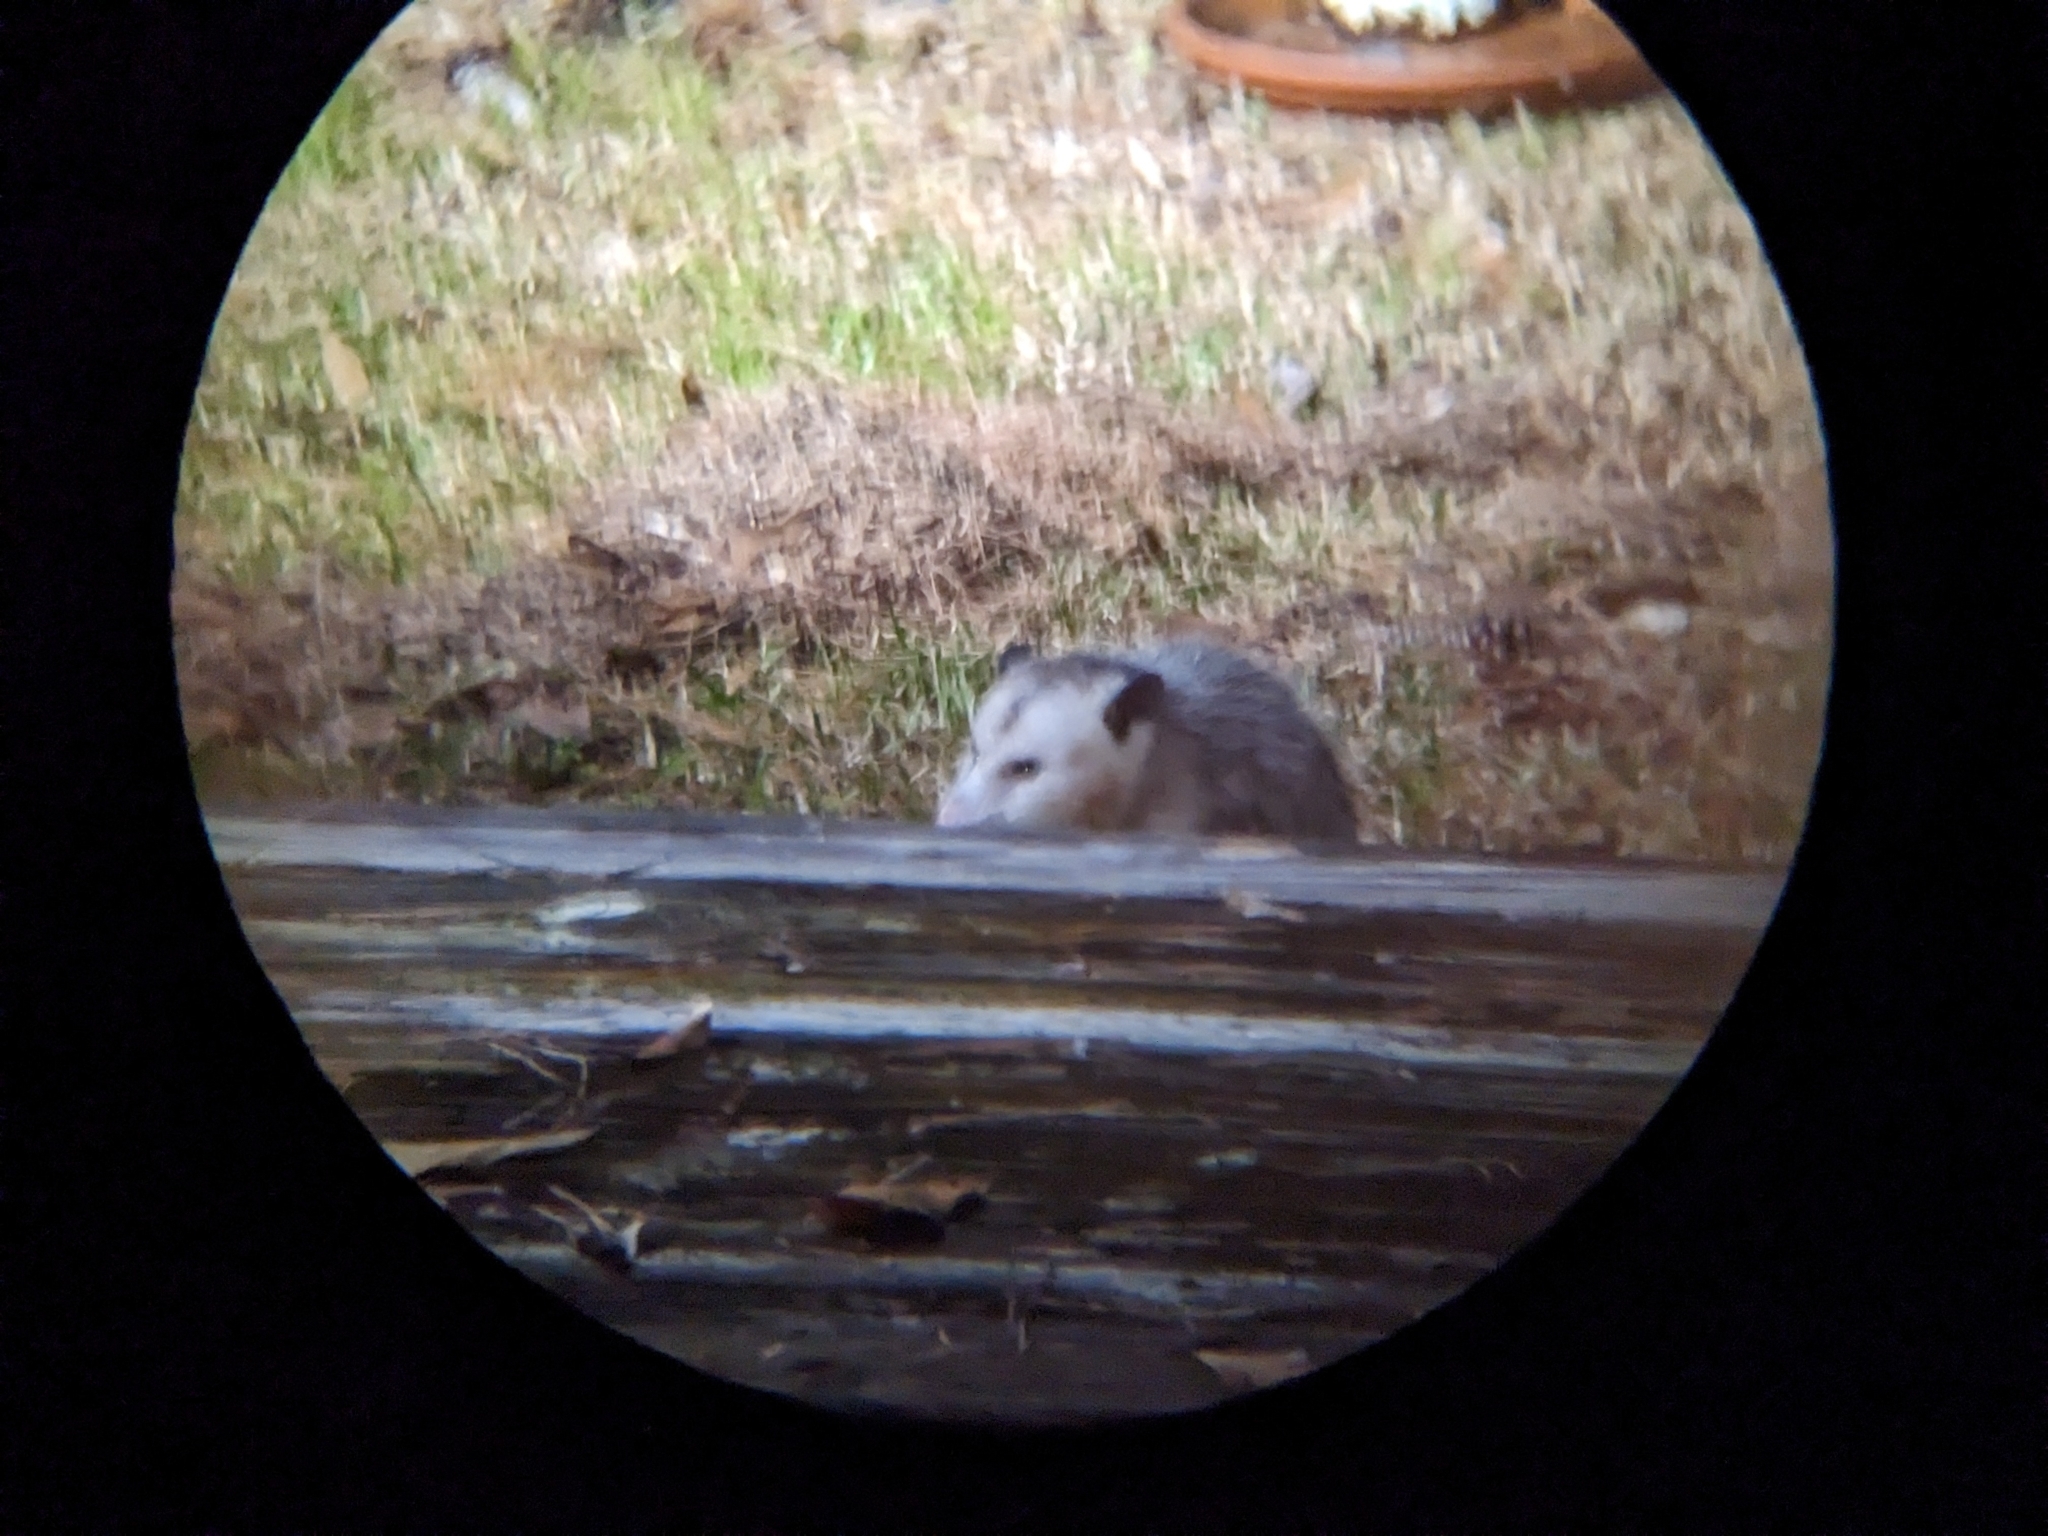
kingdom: Animalia
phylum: Chordata
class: Mammalia
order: Didelphimorphia
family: Didelphidae
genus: Didelphis
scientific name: Didelphis virginiana
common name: Virginia opossum
